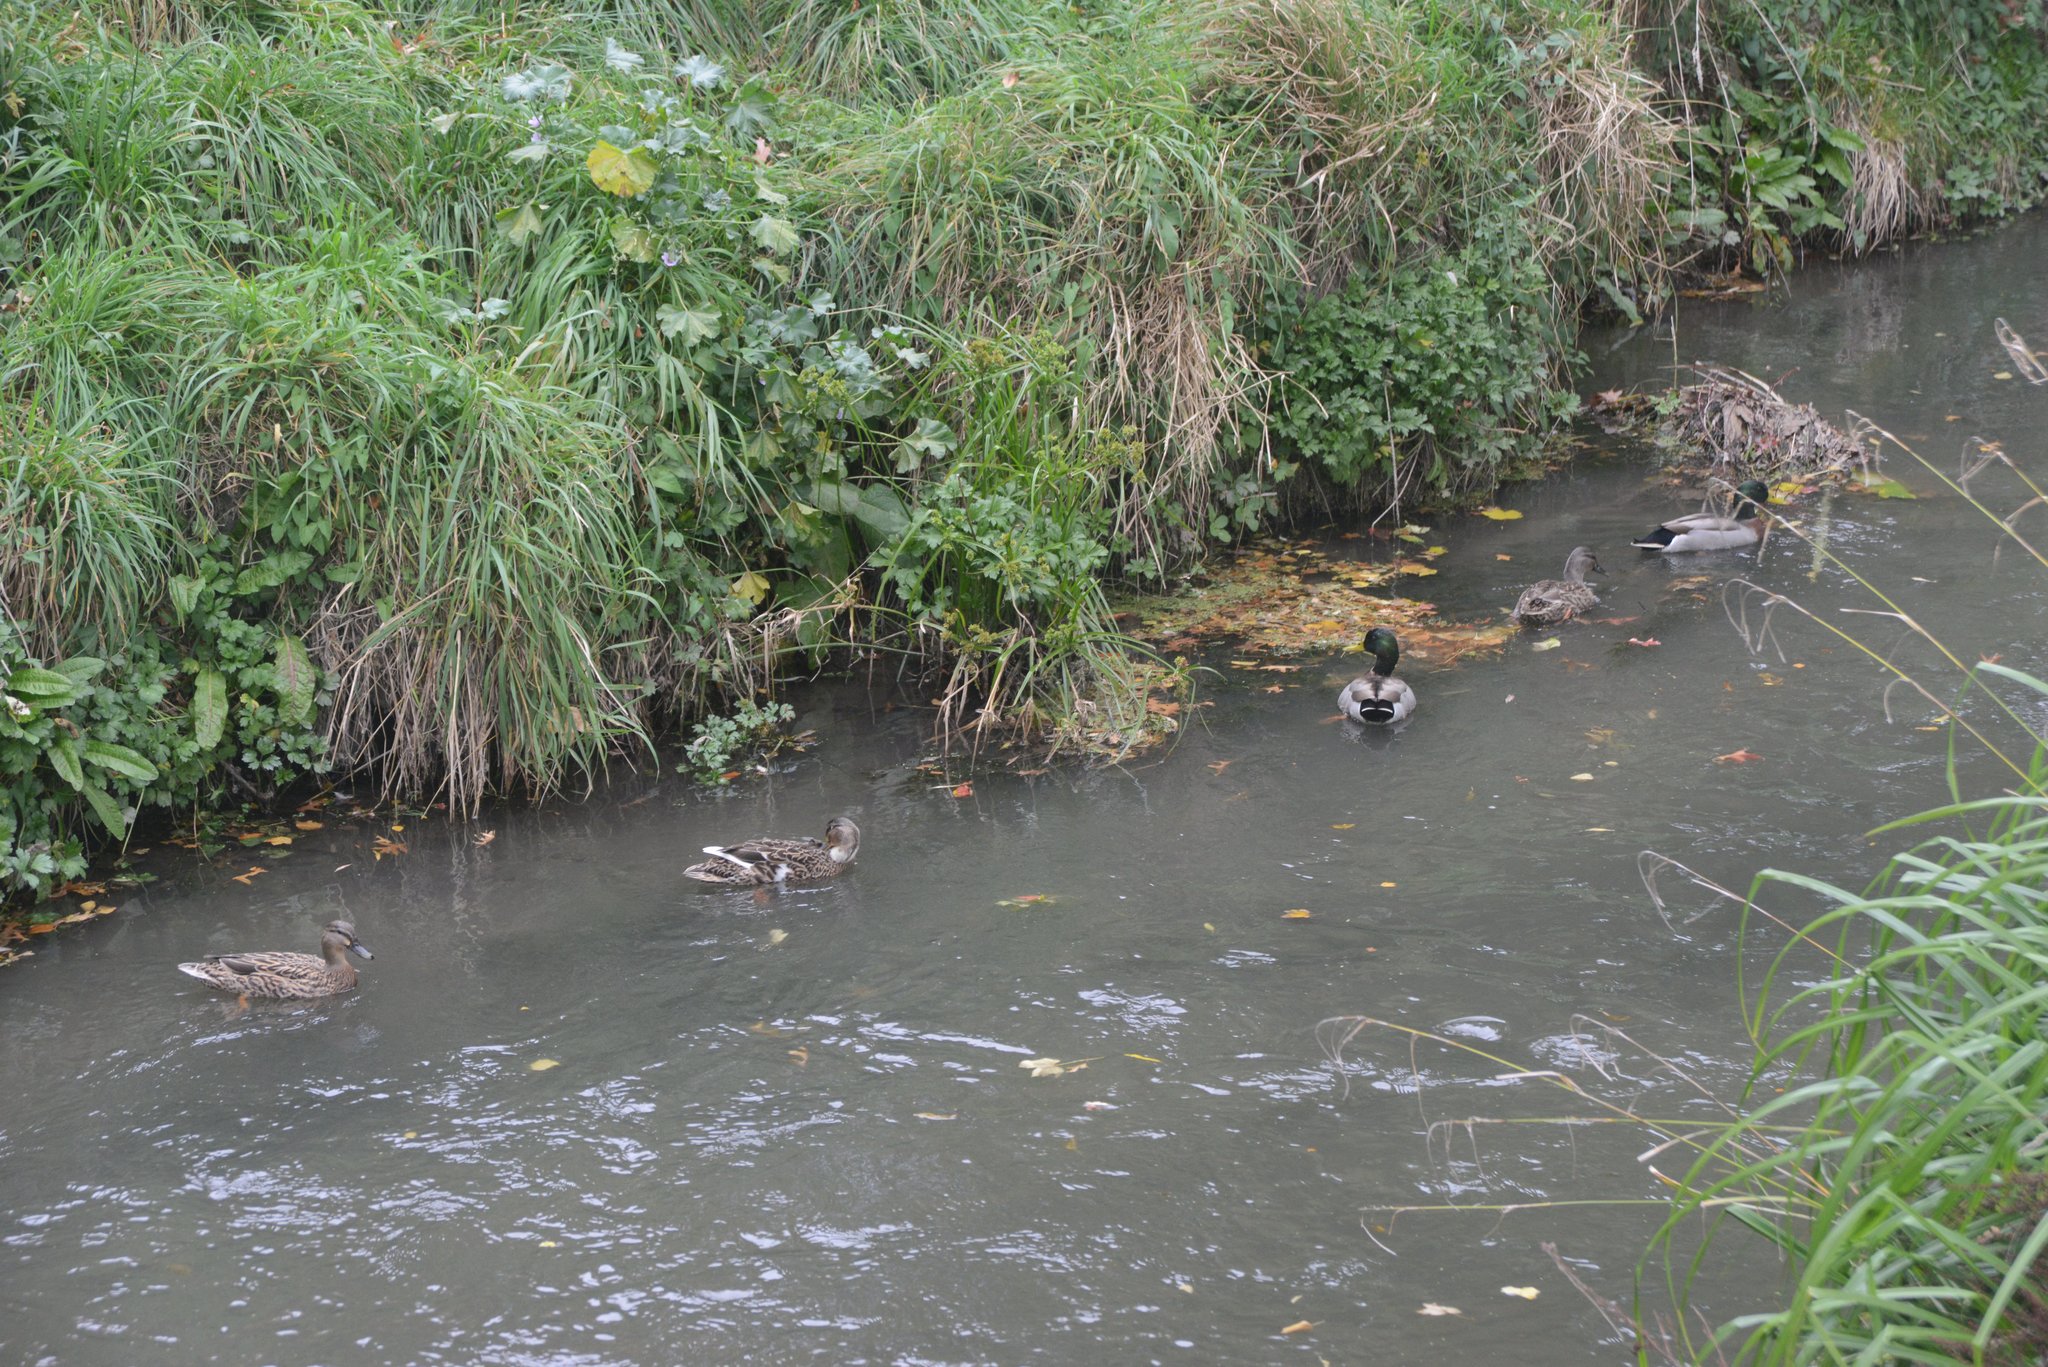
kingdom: Animalia
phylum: Chordata
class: Aves
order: Anseriformes
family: Anatidae
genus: Anas
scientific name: Anas platyrhynchos
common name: Mallard
